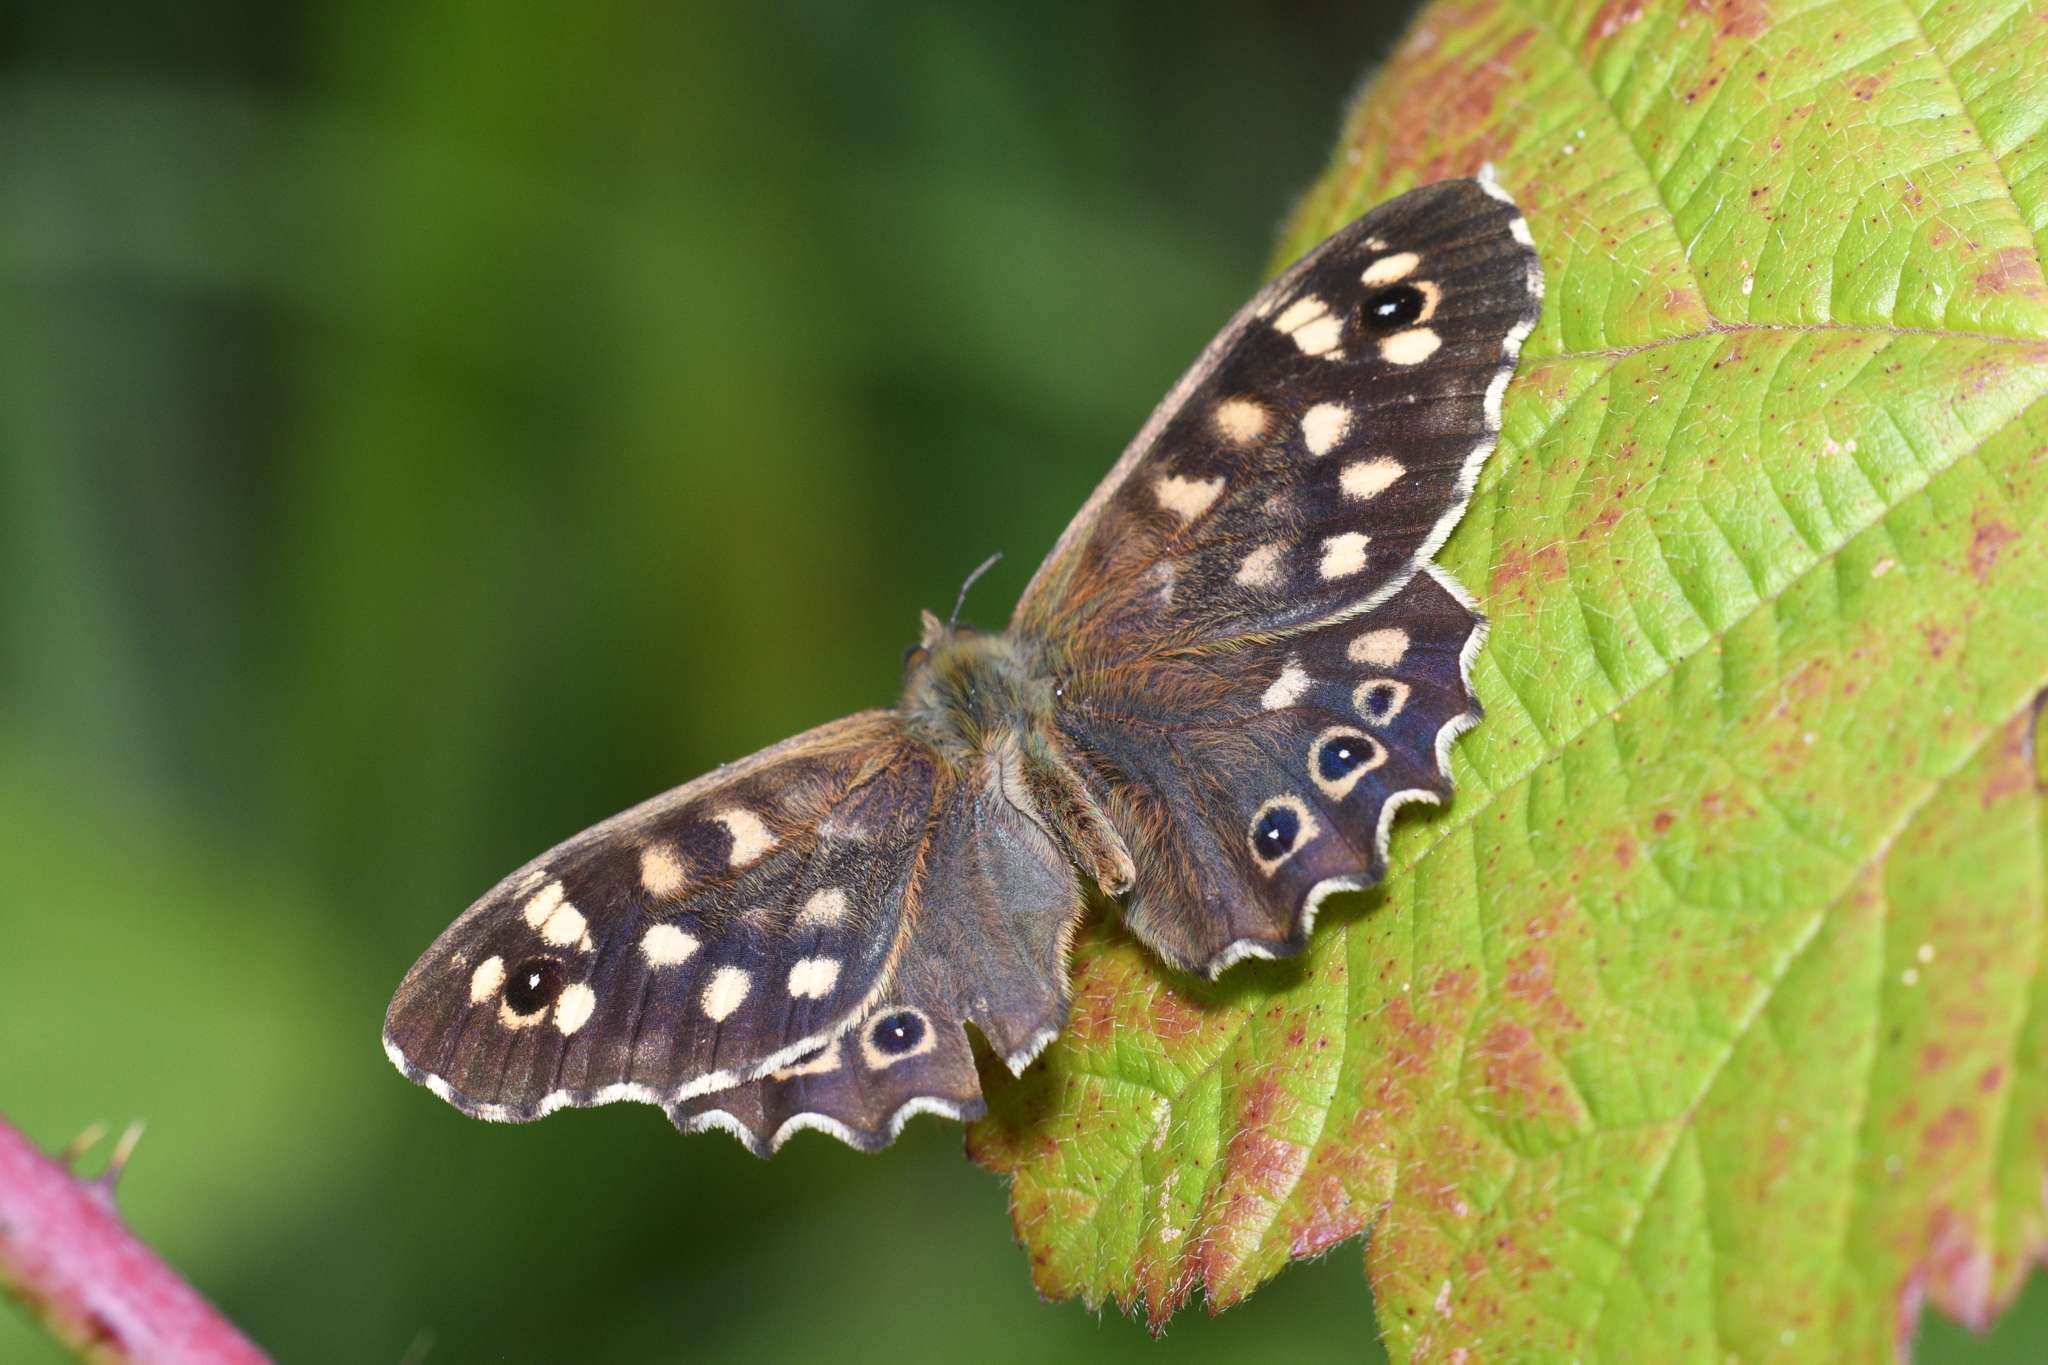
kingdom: Animalia
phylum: Arthropoda
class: Insecta
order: Lepidoptera
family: Nymphalidae
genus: Pararge
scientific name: Pararge aegeria
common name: Speckled wood
